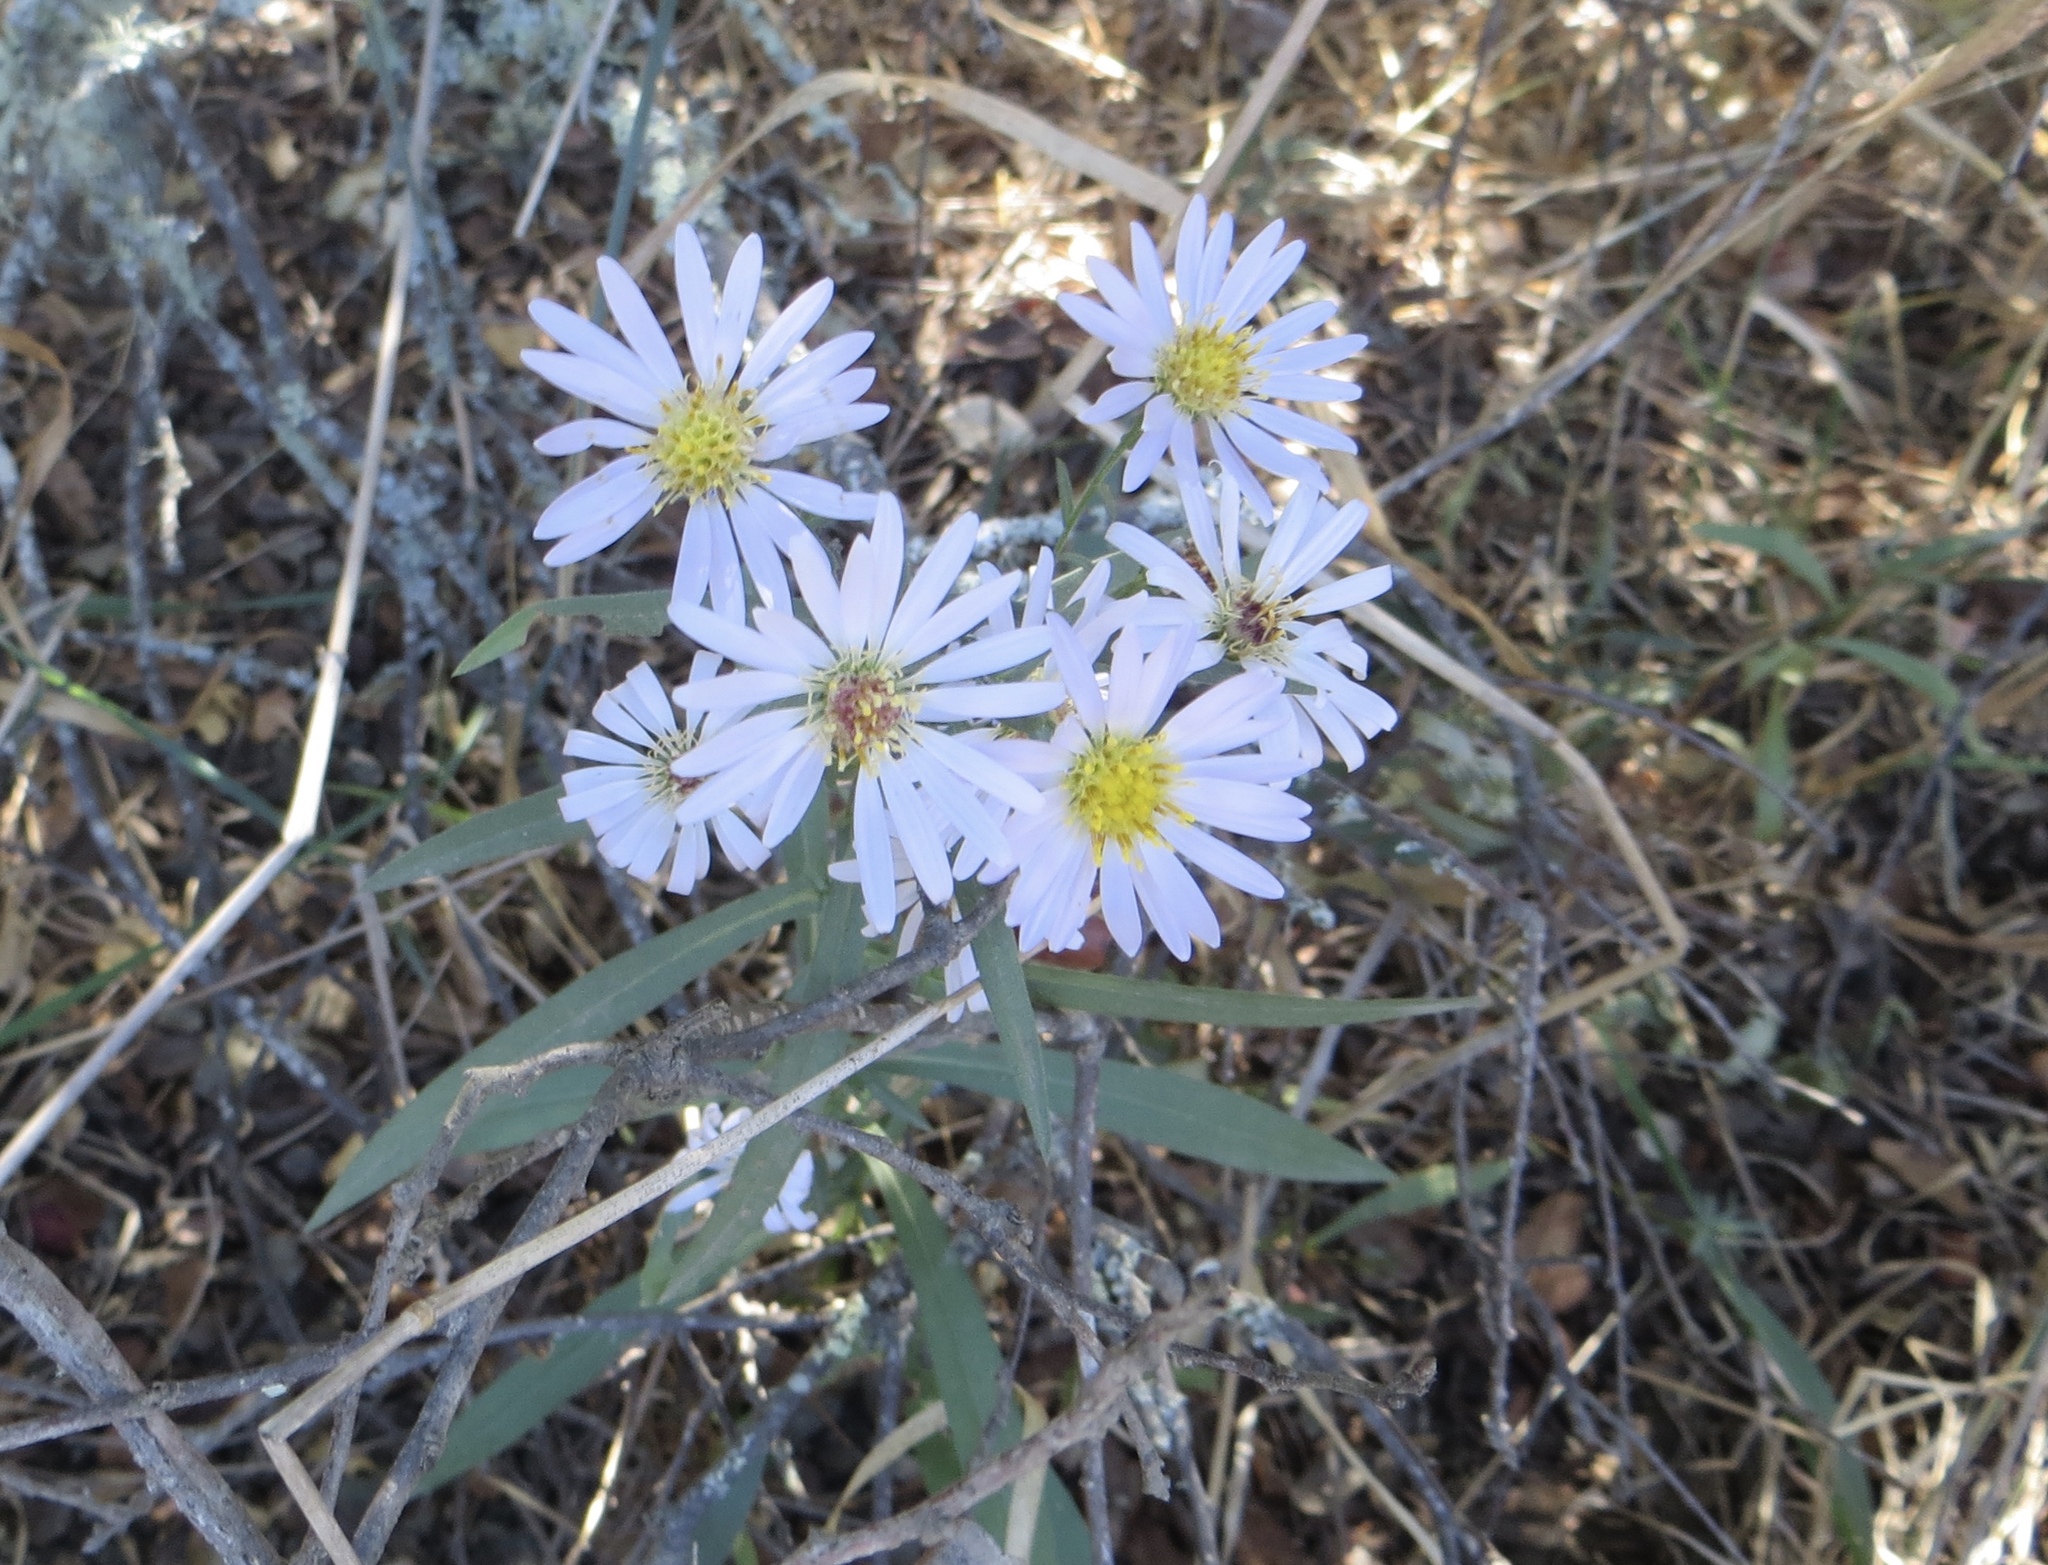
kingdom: Plantae
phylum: Tracheophyta
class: Magnoliopsida
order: Asterales
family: Asteraceae
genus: Symphyotrichum
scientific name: Symphyotrichum chilense
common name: Pacific aster
